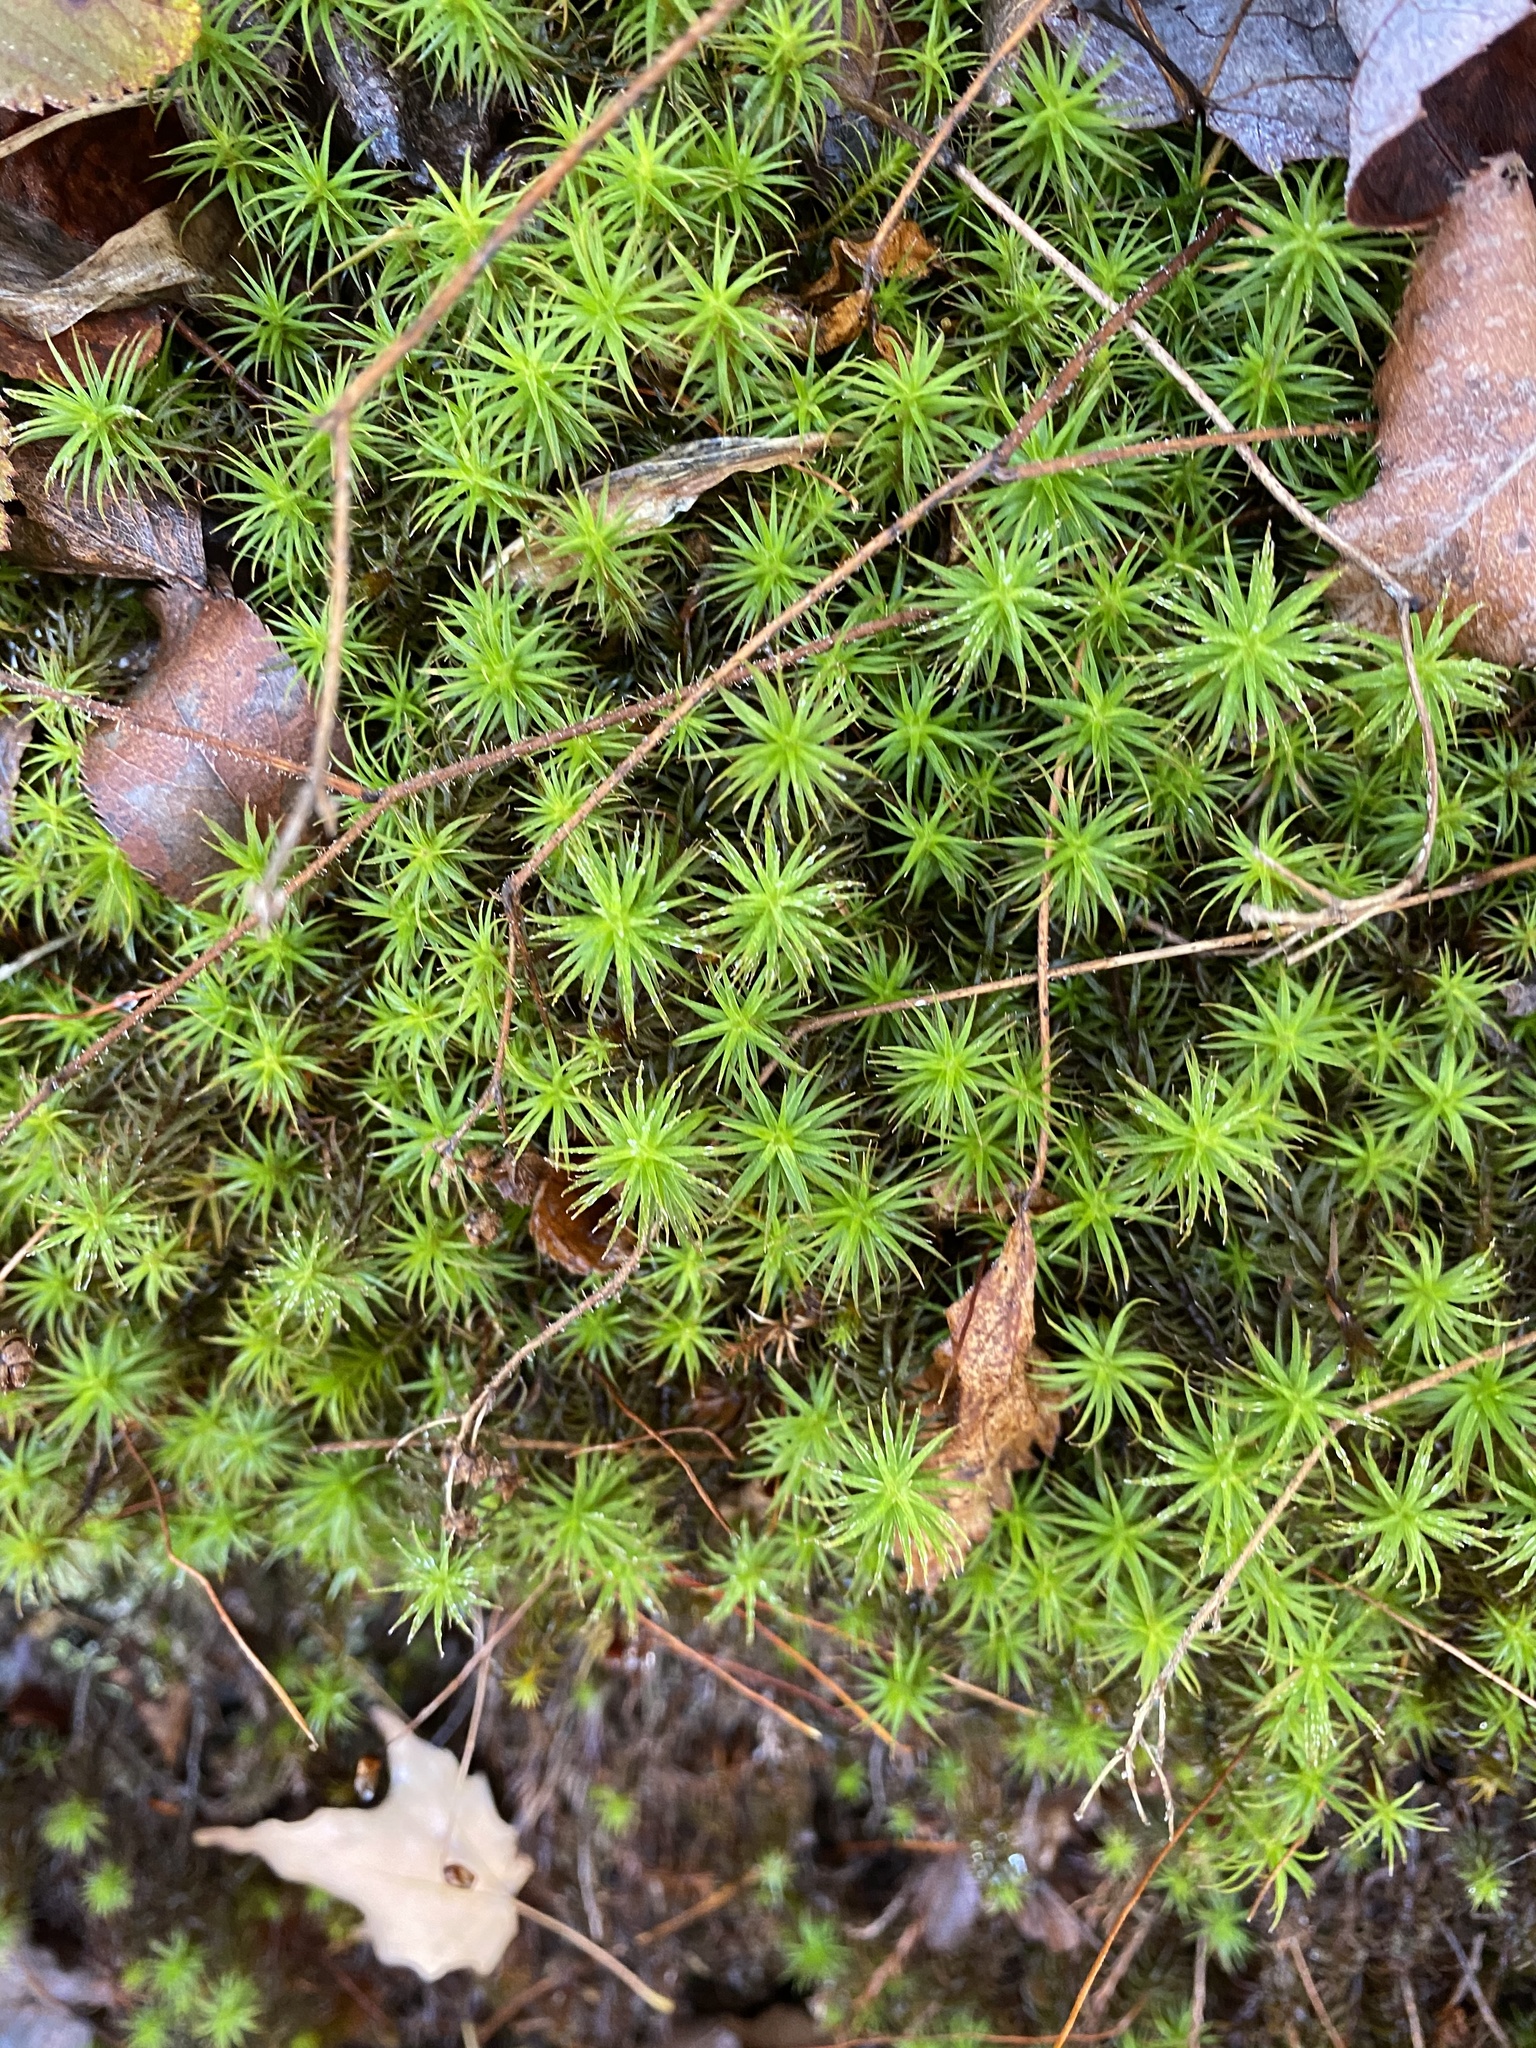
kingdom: Plantae
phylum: Bryophyta
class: Polytrichopsida
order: Polytrichales
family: Polytrichaceae
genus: Polytrichum
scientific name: Polytrichum commune
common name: Common haircap
